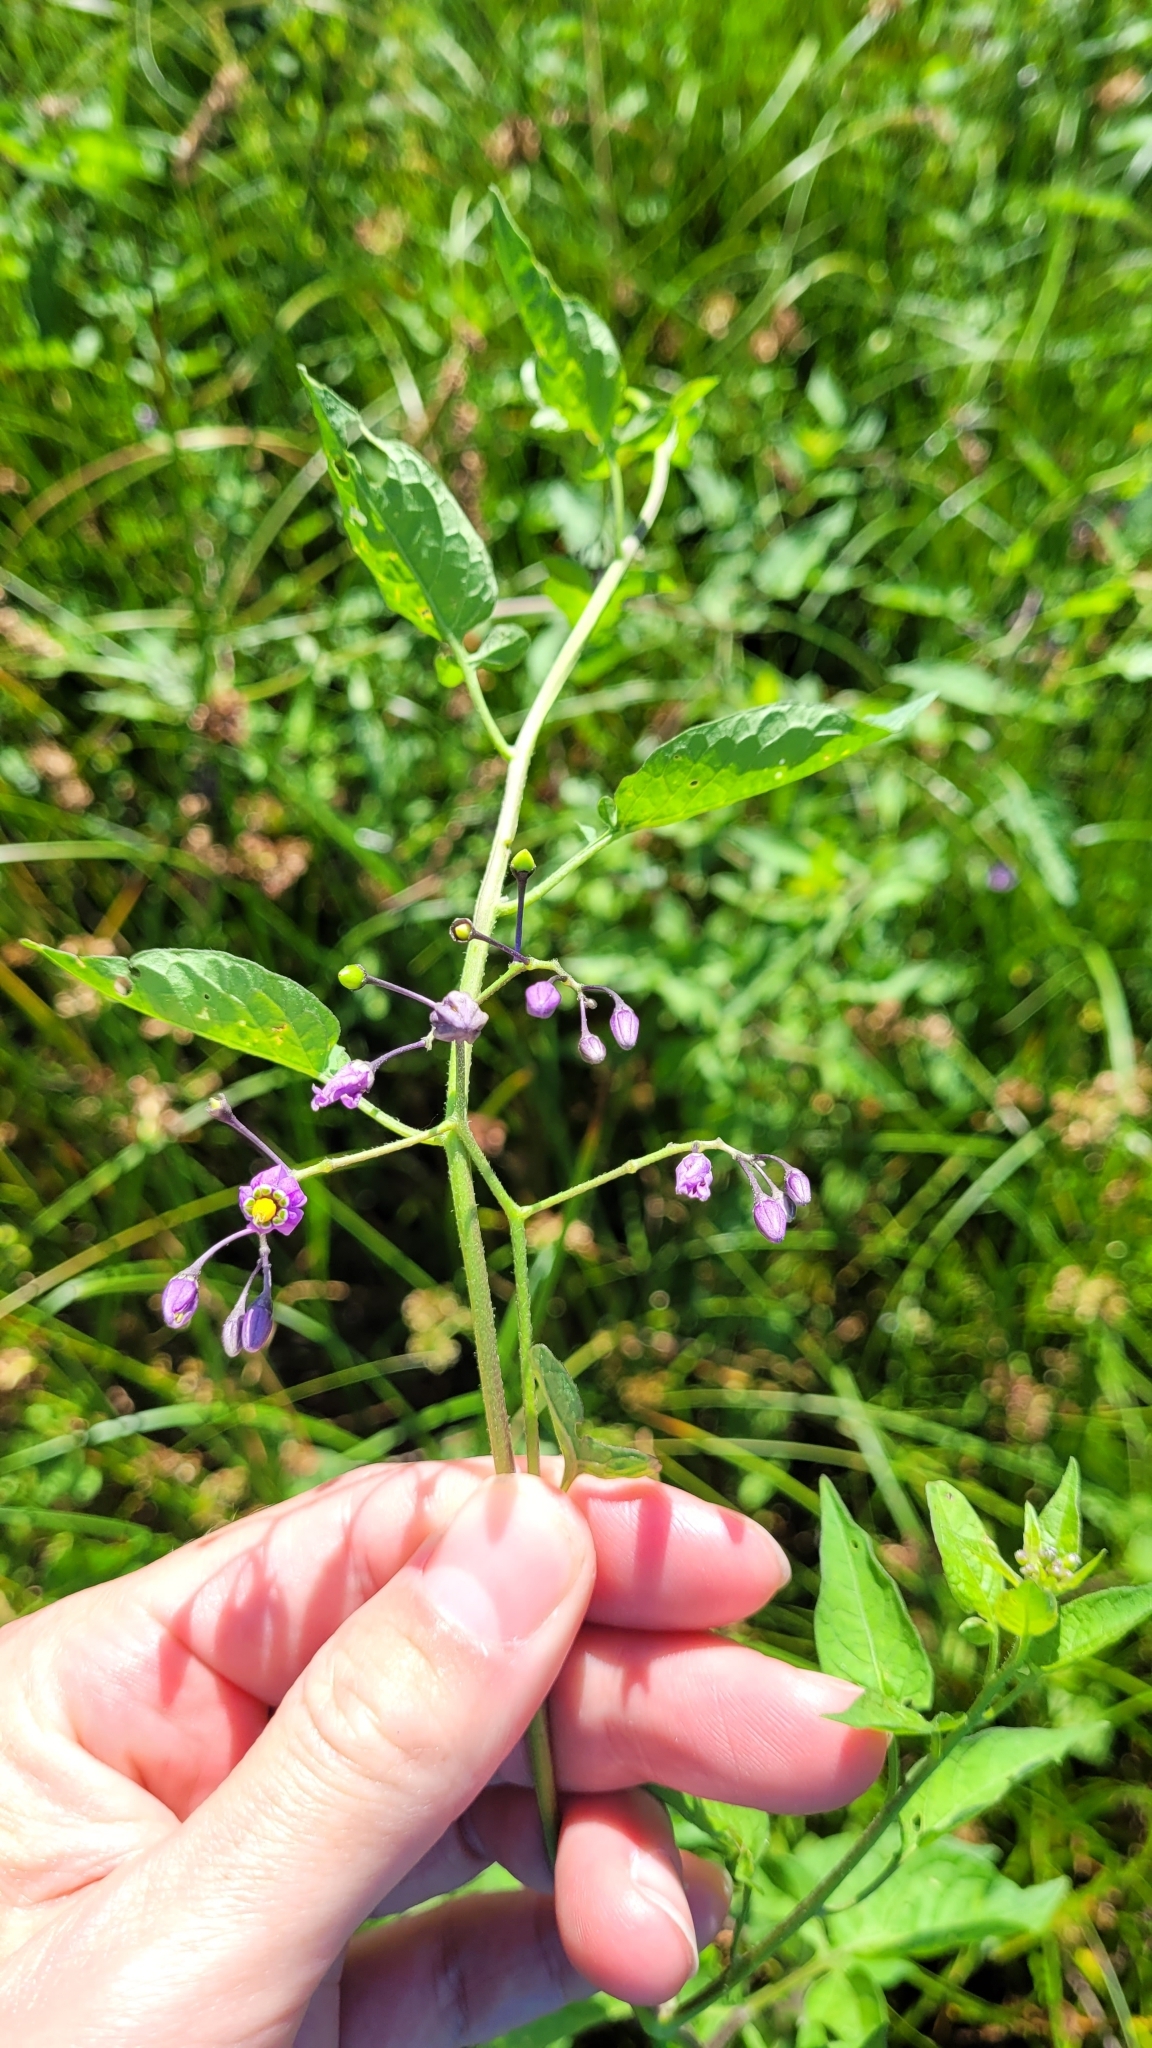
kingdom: Plantae
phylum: Tracheophyta
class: Magnoliopsida
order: Solanales
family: Solanaceae
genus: Solanum
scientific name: Solanum dulcamara
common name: Climbing nightshade
